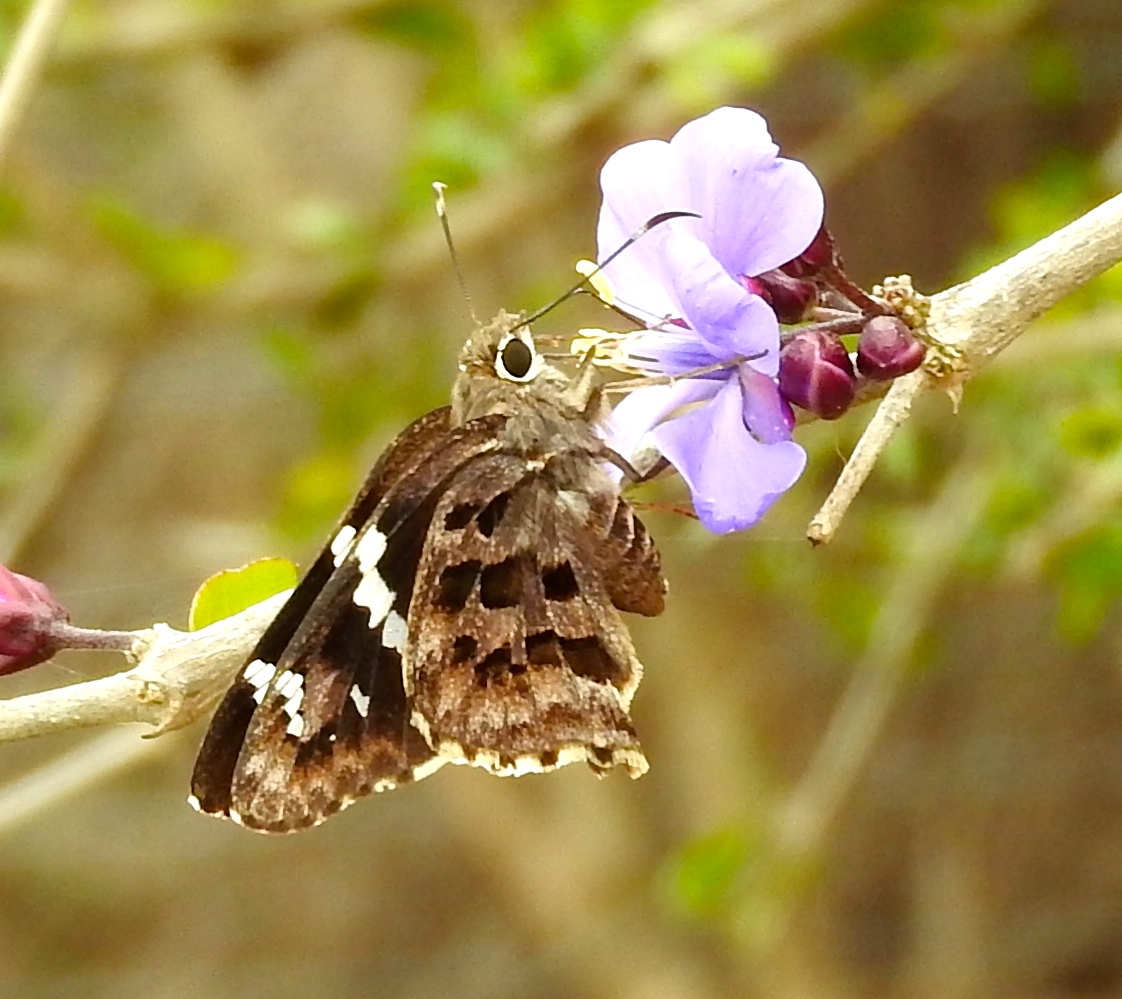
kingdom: Animalia
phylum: Arthropoda
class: Insecta
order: Lepidoptera
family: Hesperiidae
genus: Codatractus
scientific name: Codatractus melon
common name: Melon mottled-skipper
